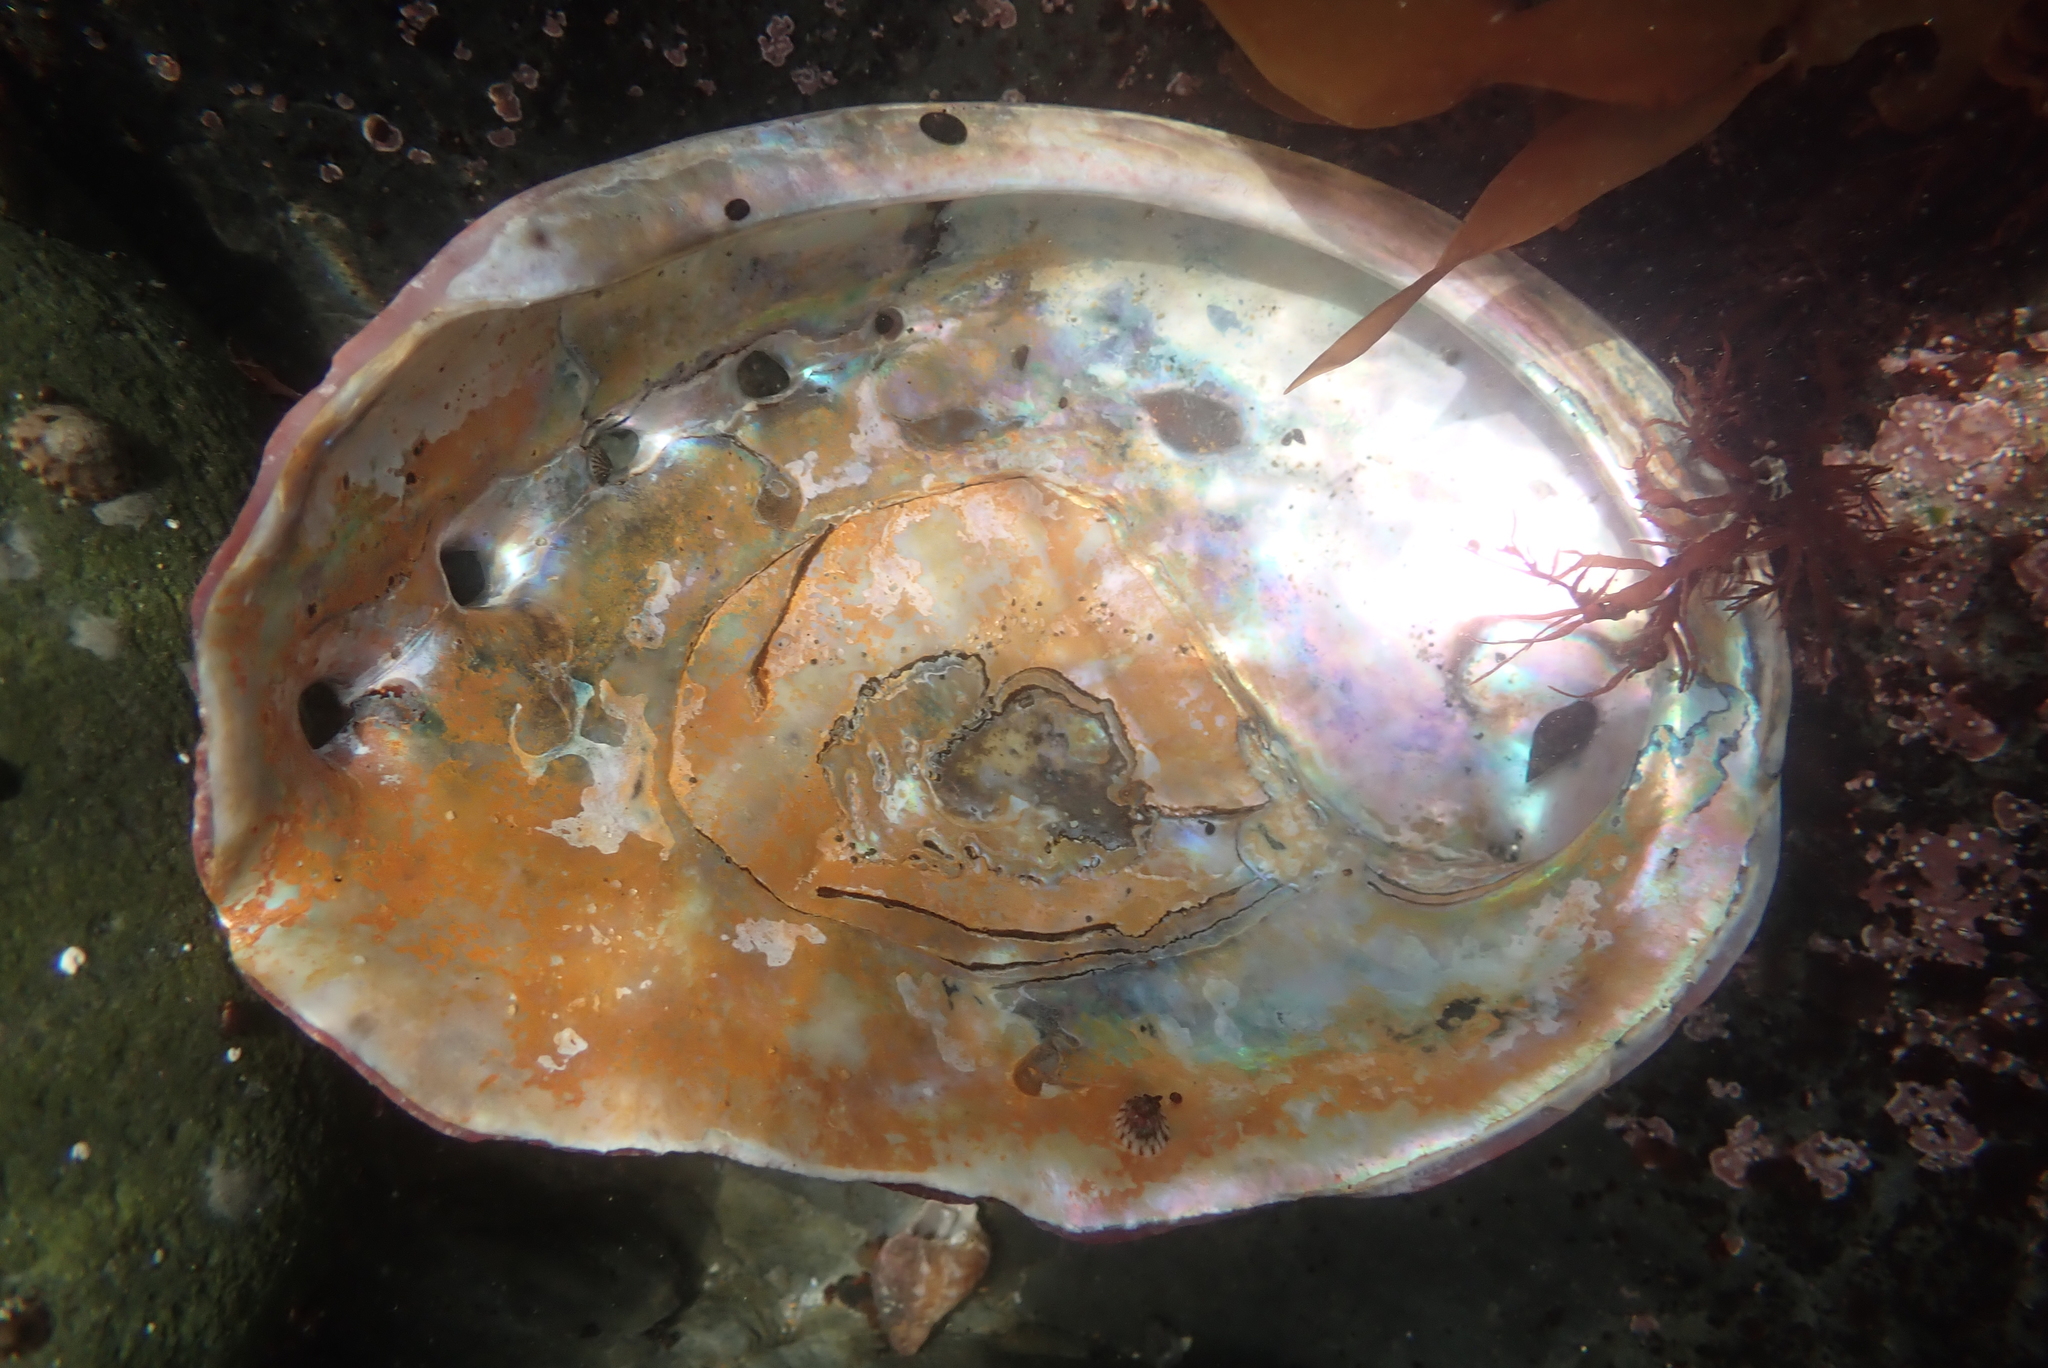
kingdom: Animalia
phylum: Mollusca
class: Gastropoda
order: Lepetellida
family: Haliotidae
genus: Haliotis
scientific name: Haliotis rufescens
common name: Red abalone
